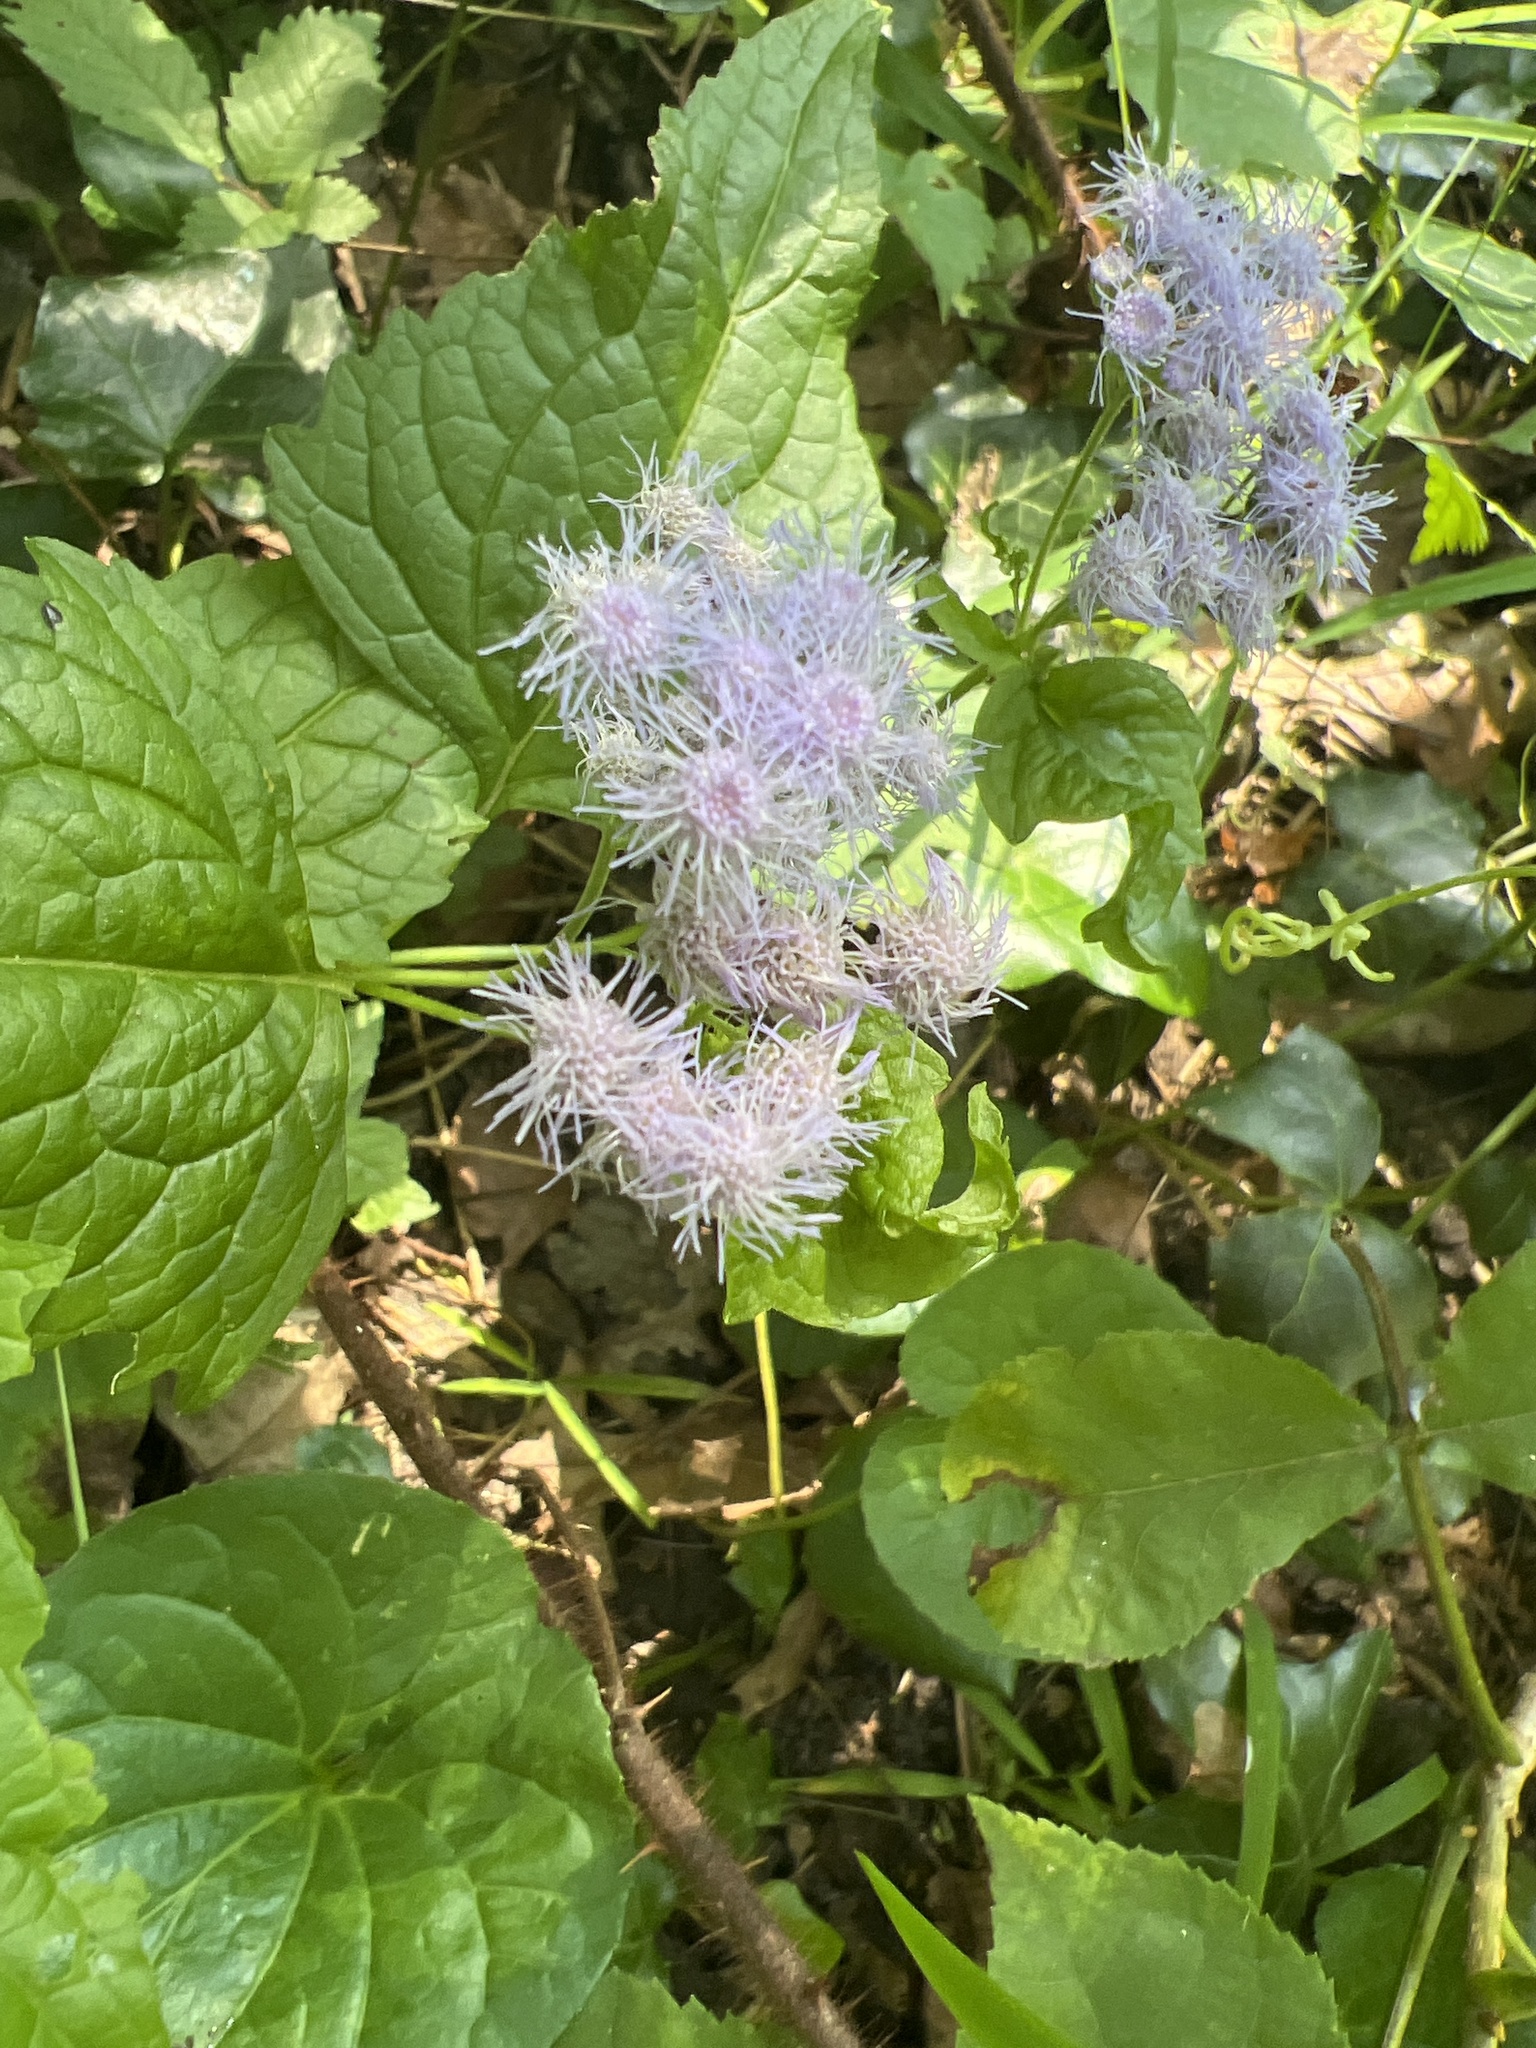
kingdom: Plantae
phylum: Tracheophyta
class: Magnoliopsida
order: Asterales
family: Asteraceae
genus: Conoclinium
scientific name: Conoclinium coelestinum
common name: Blue mistflower
